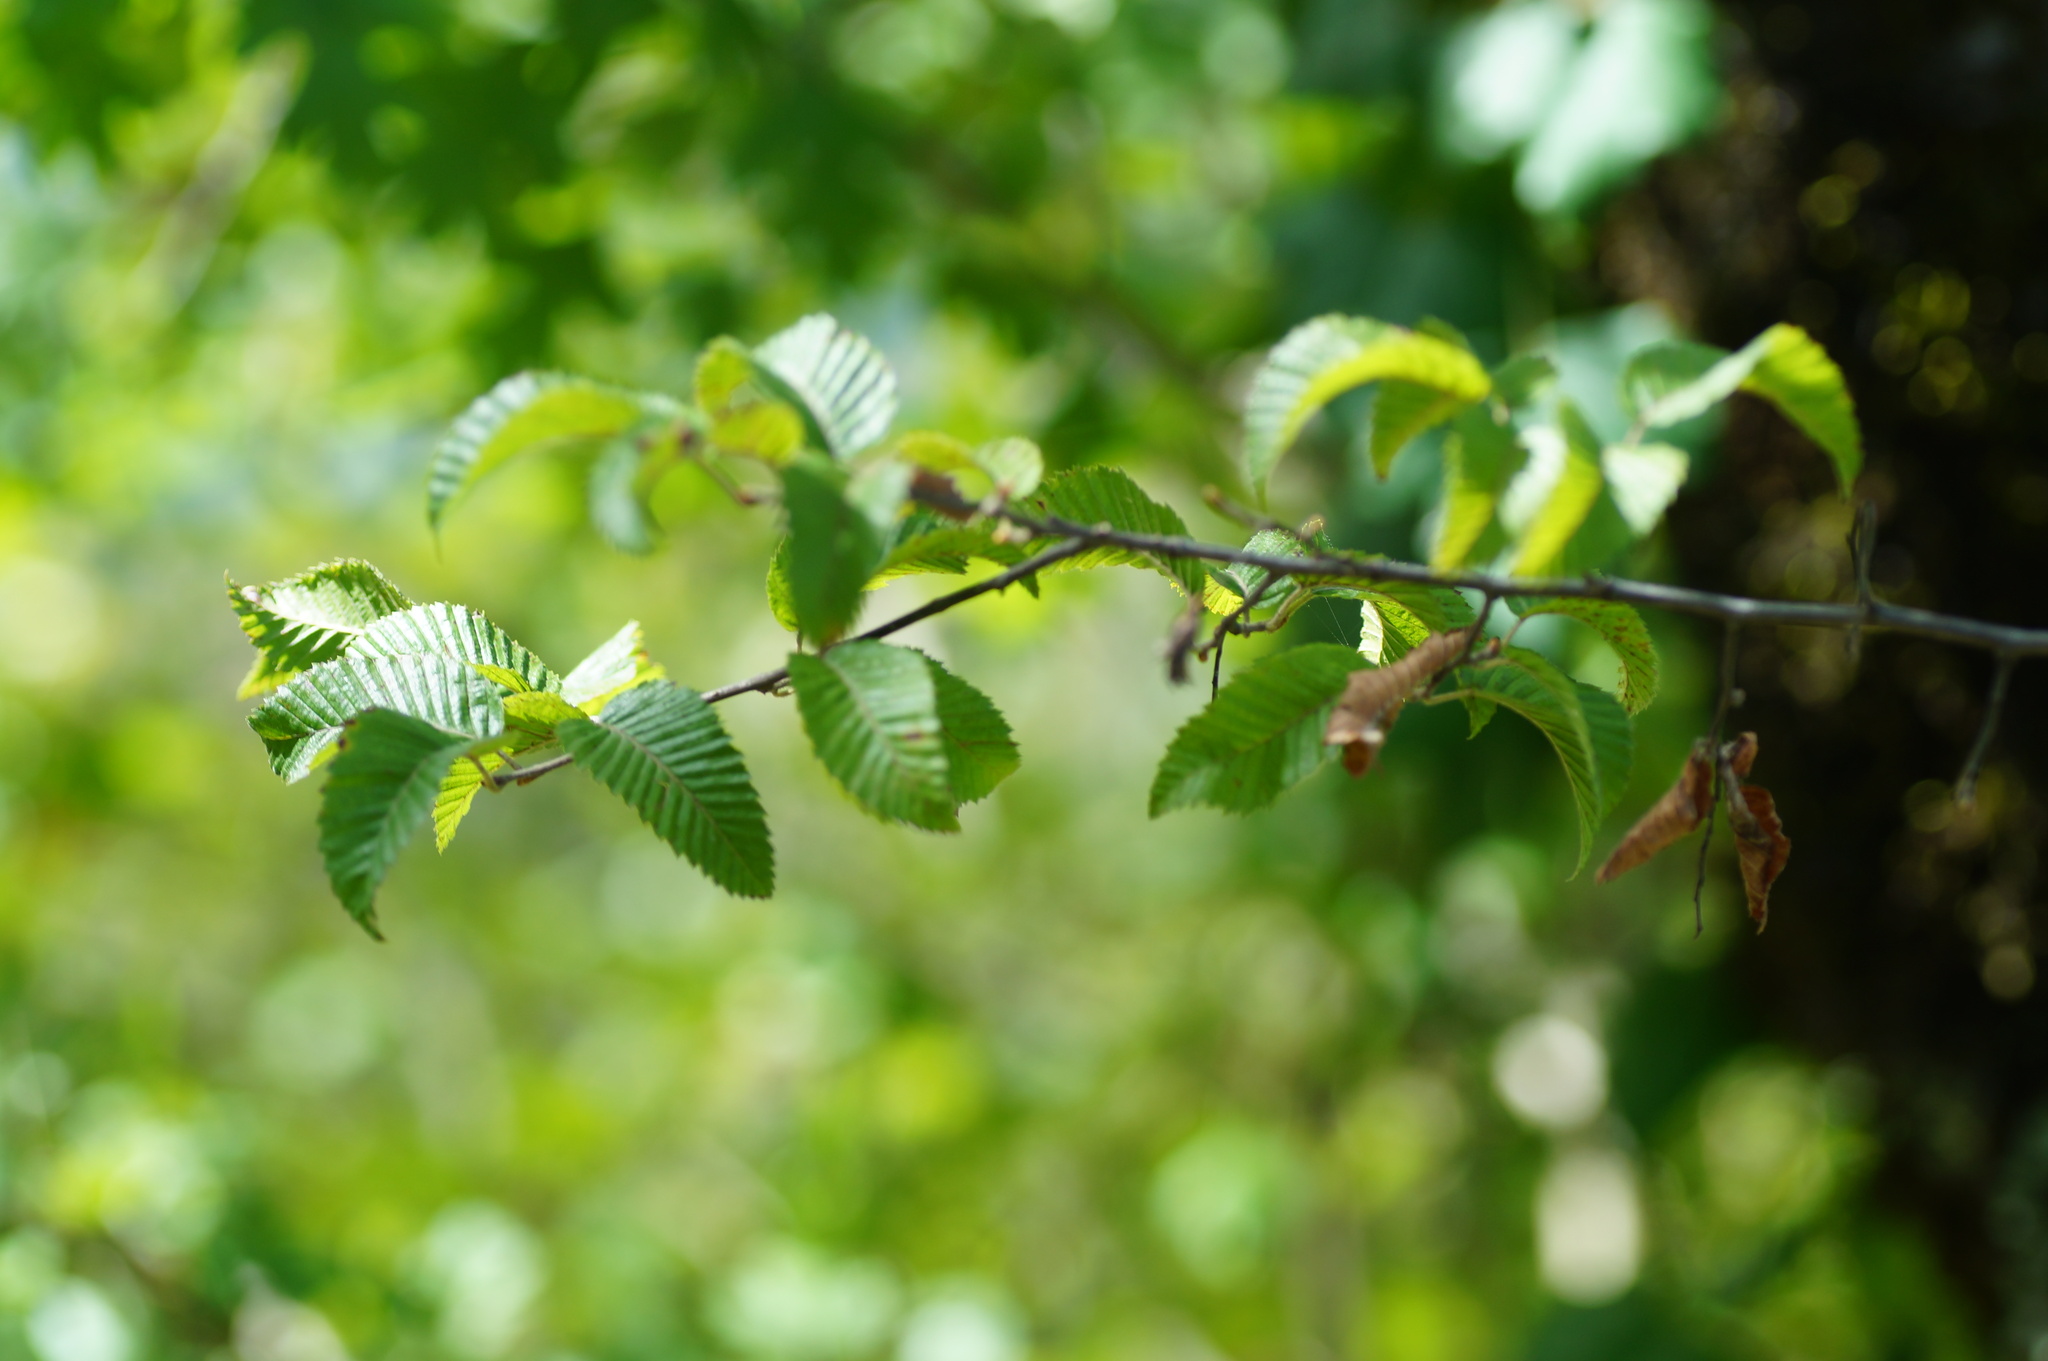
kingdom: Plantae
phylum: Tracheophyta
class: Magnoliopsida
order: Fagales
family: Betulaceae
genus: Carpinus
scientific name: Carpinus orientalis
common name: Eastern hornbeam
